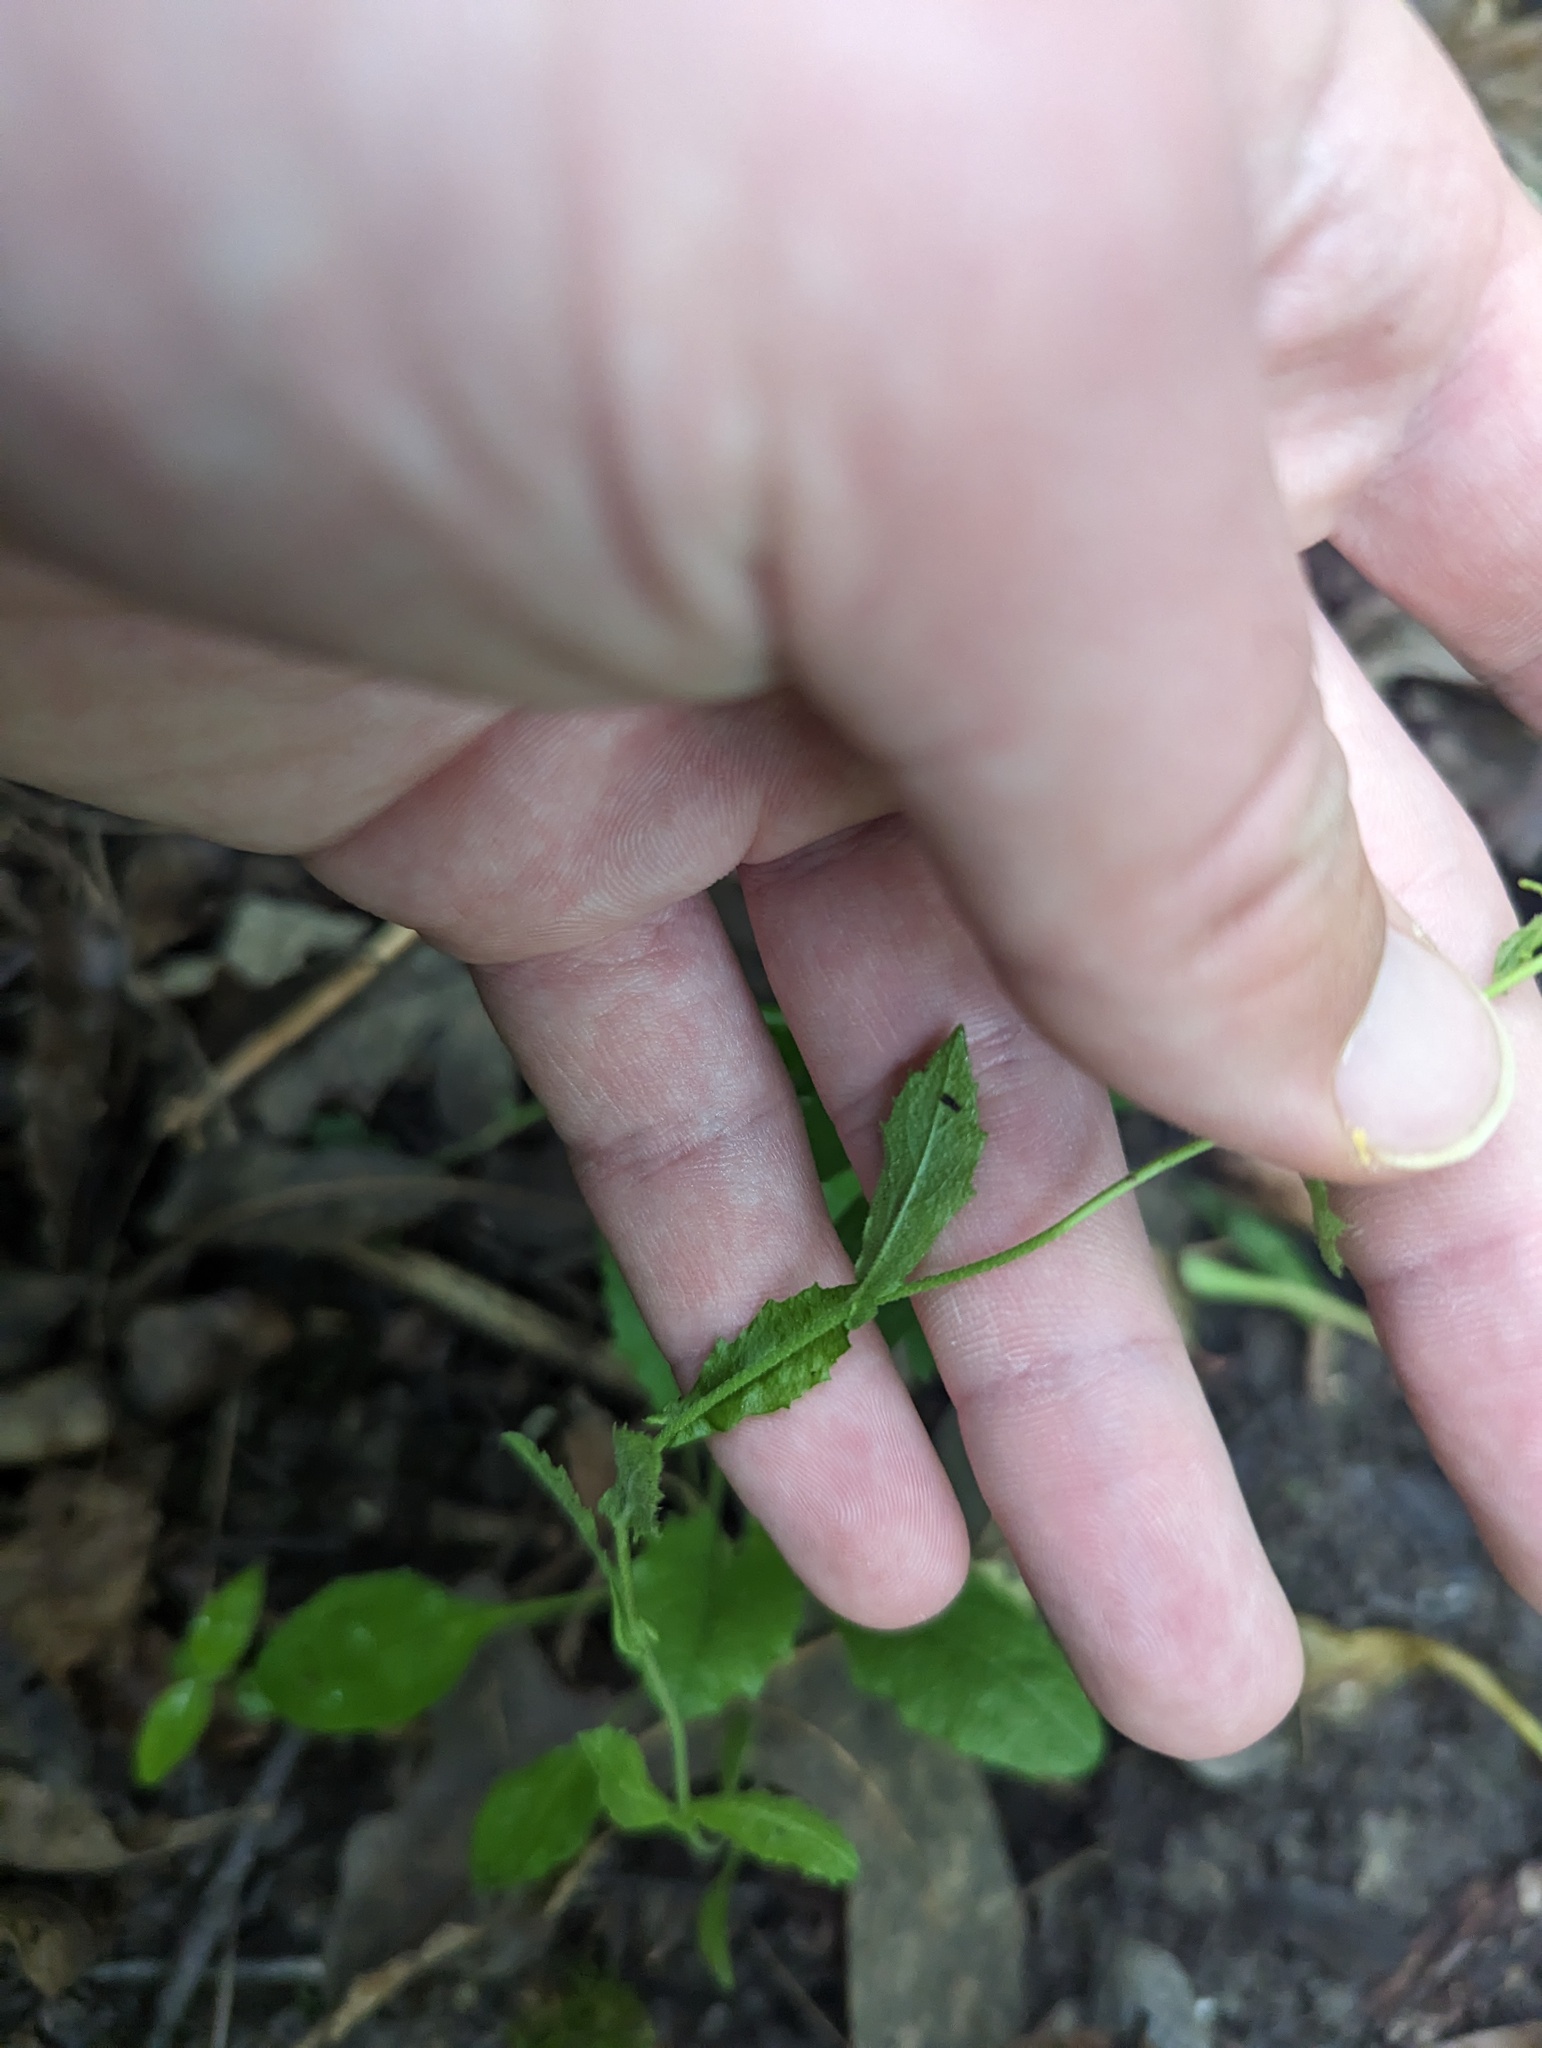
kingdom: Plantae
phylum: Tracheophyta
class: Magnoliopsida
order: Brassicales
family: Brassicaceae
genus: Borodinia
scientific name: Borodinia dentata
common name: Short's rockcress
